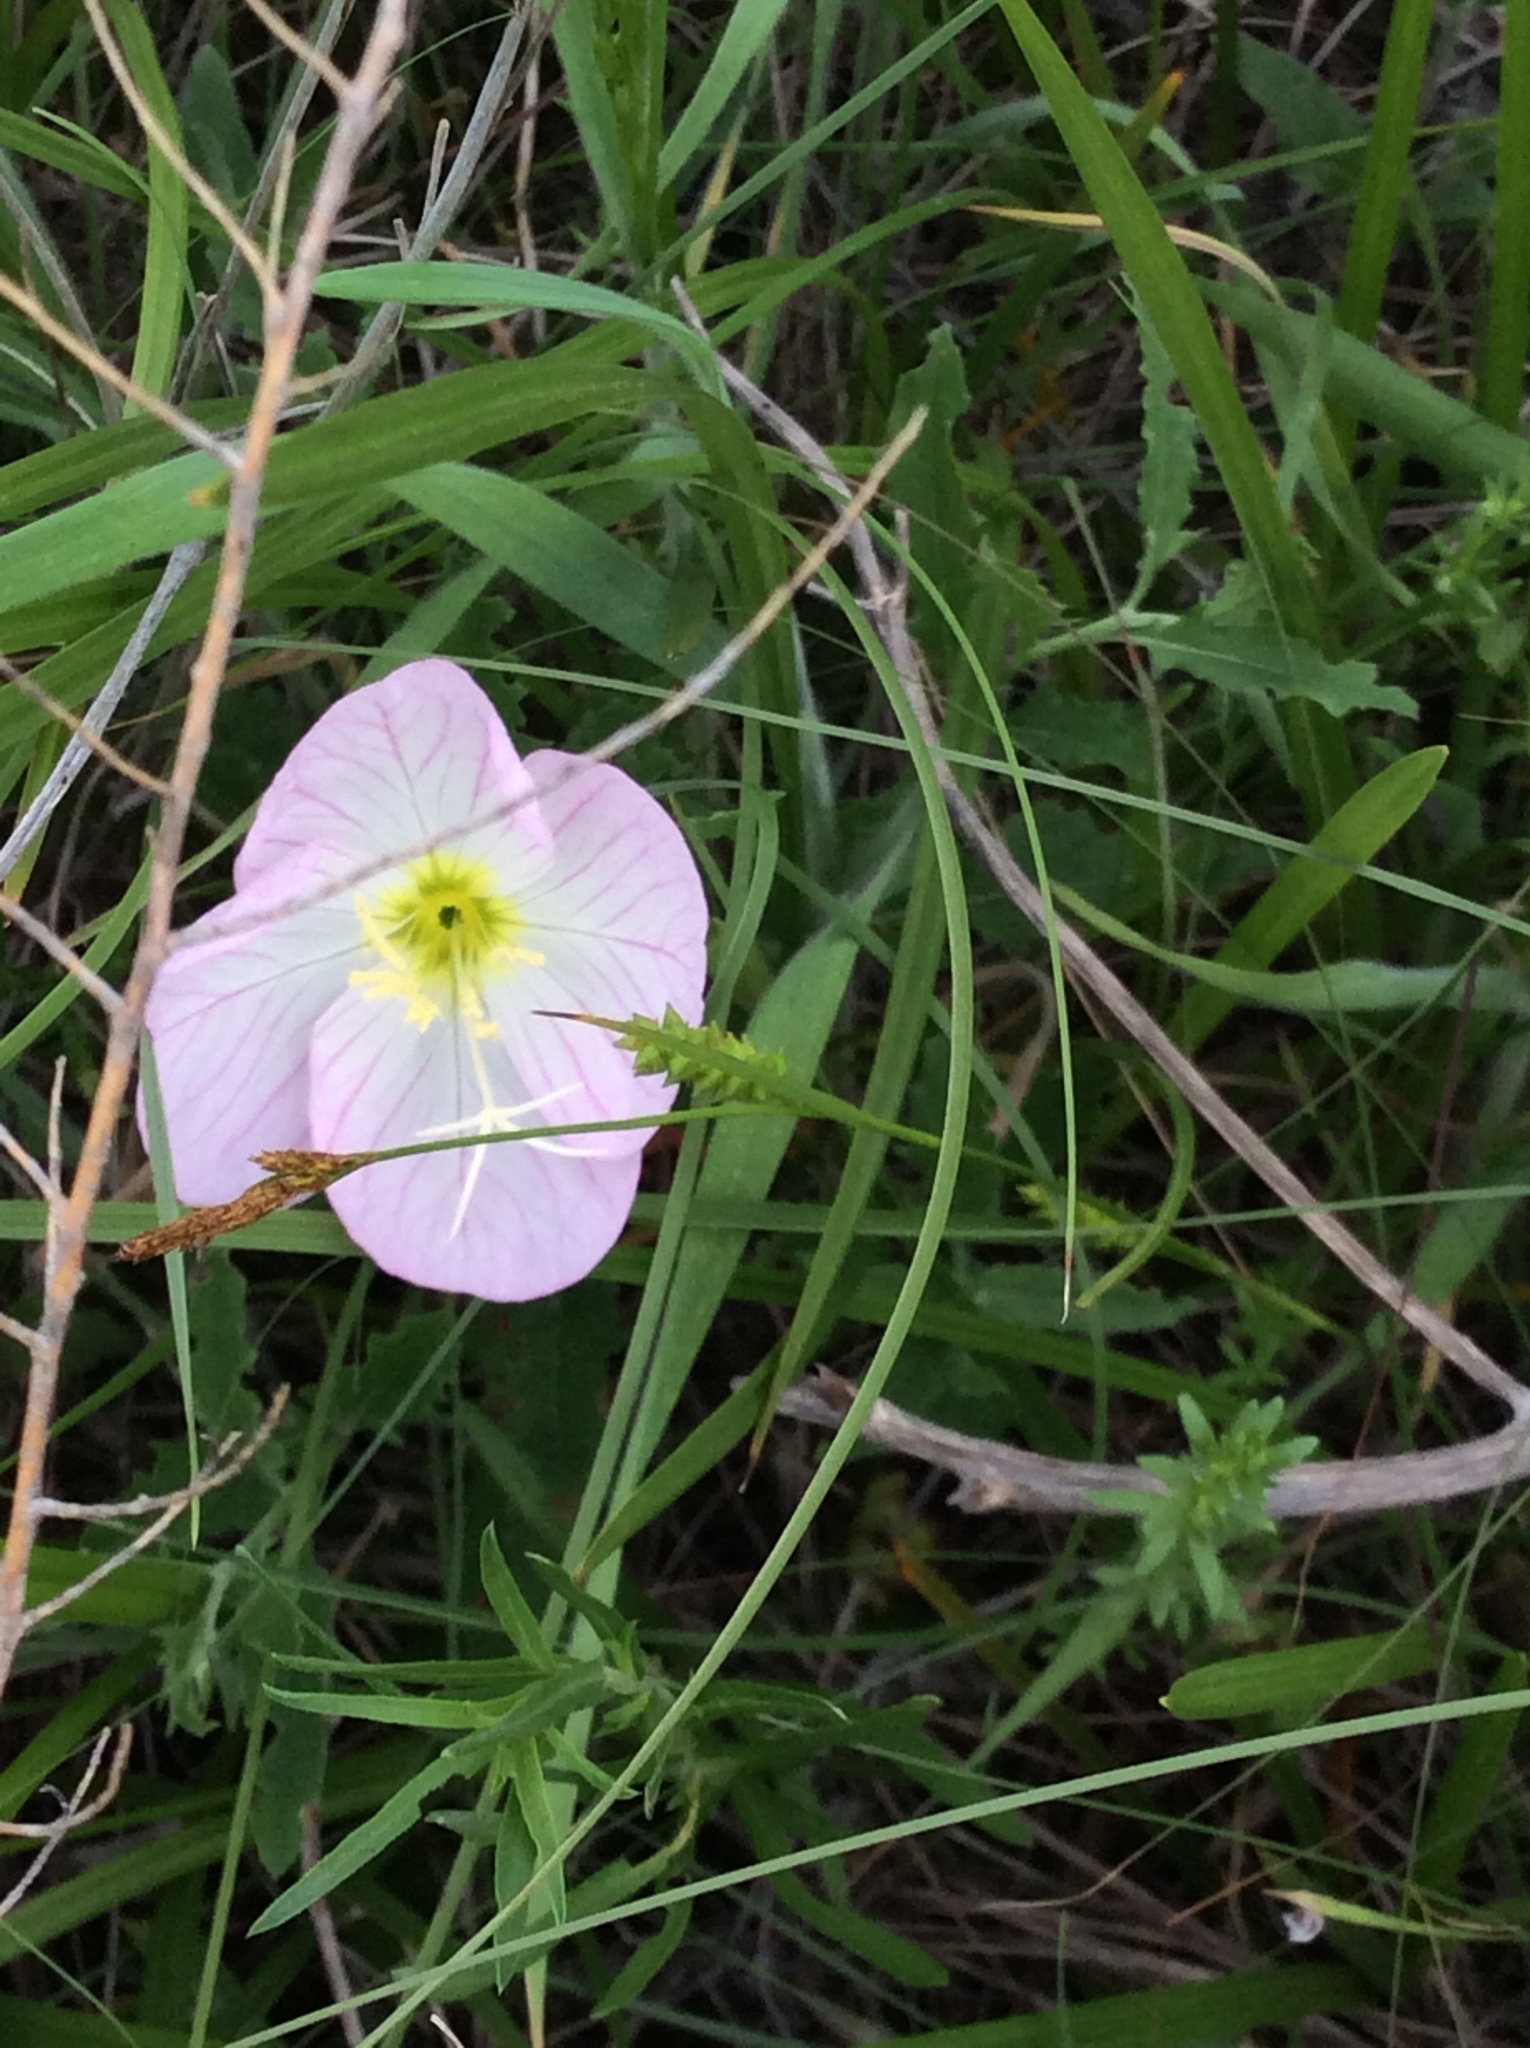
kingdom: Plantae
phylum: Tracheophyta
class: Magnoliopsida
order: Myrtales
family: Onagraceae
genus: Oenothera
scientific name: Oenothera speciosa
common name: White evening-primrose
